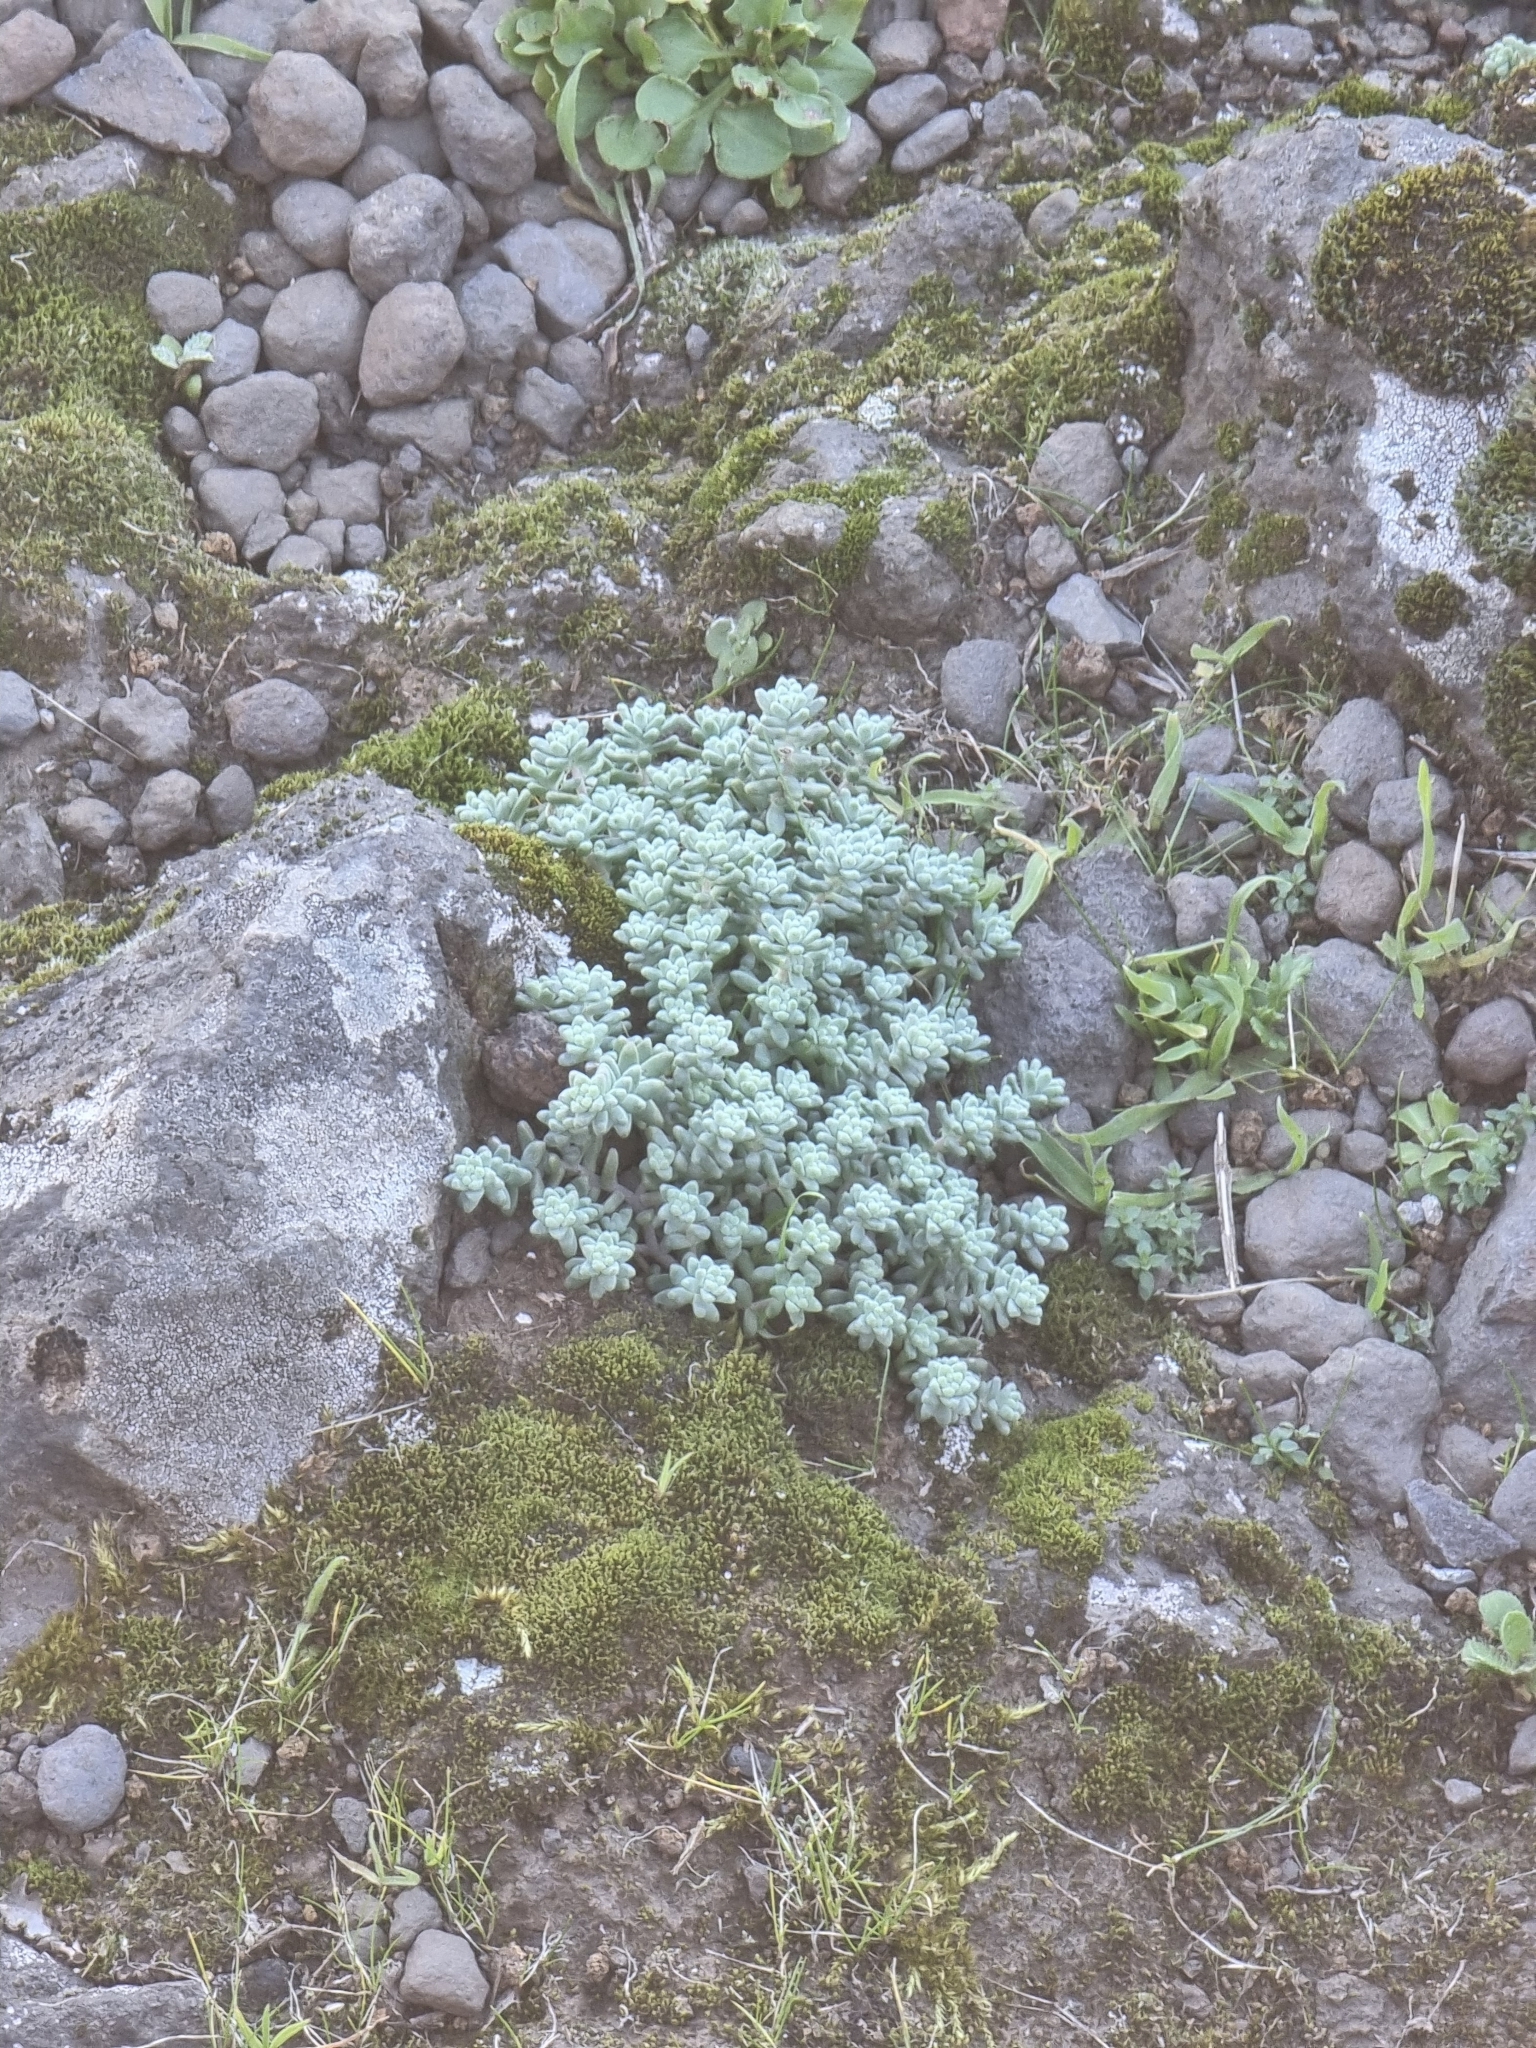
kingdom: Plantae
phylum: Tracheophyta
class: Magnoliopsida
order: Saxifragales
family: Crassulaceae
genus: Sedum
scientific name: Sedum farinosum
